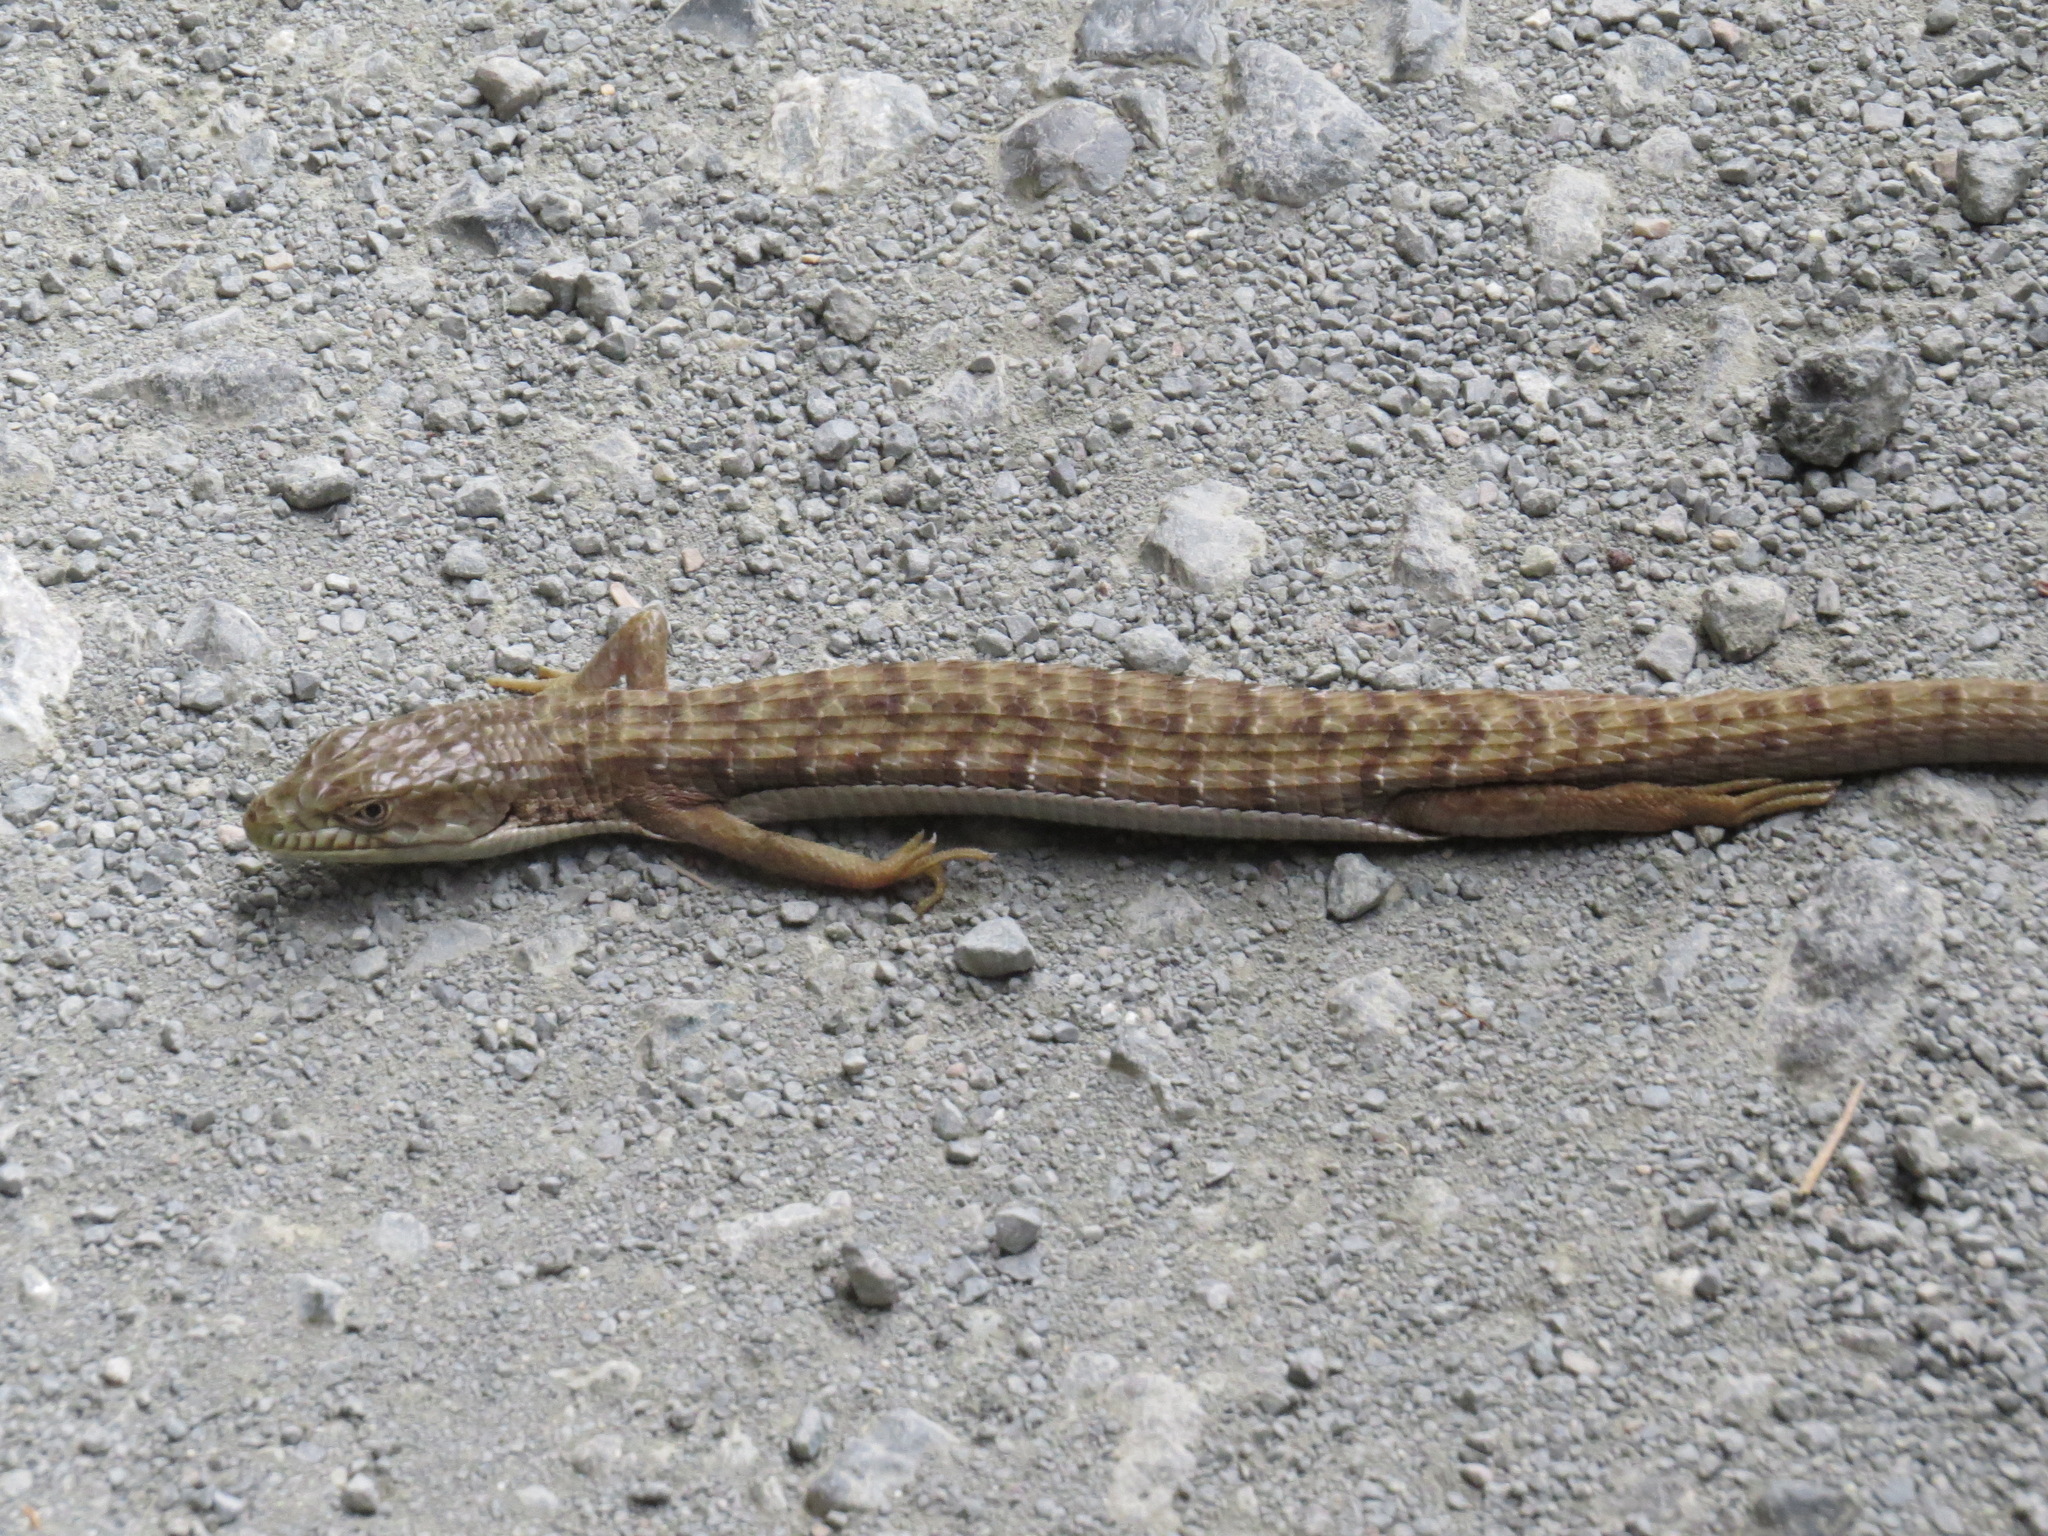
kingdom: Animalia
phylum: Chordata
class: Squamata
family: Anguidae
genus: Elgaria
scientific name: Elgaria multicarinata
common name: Southern alligator lizard
